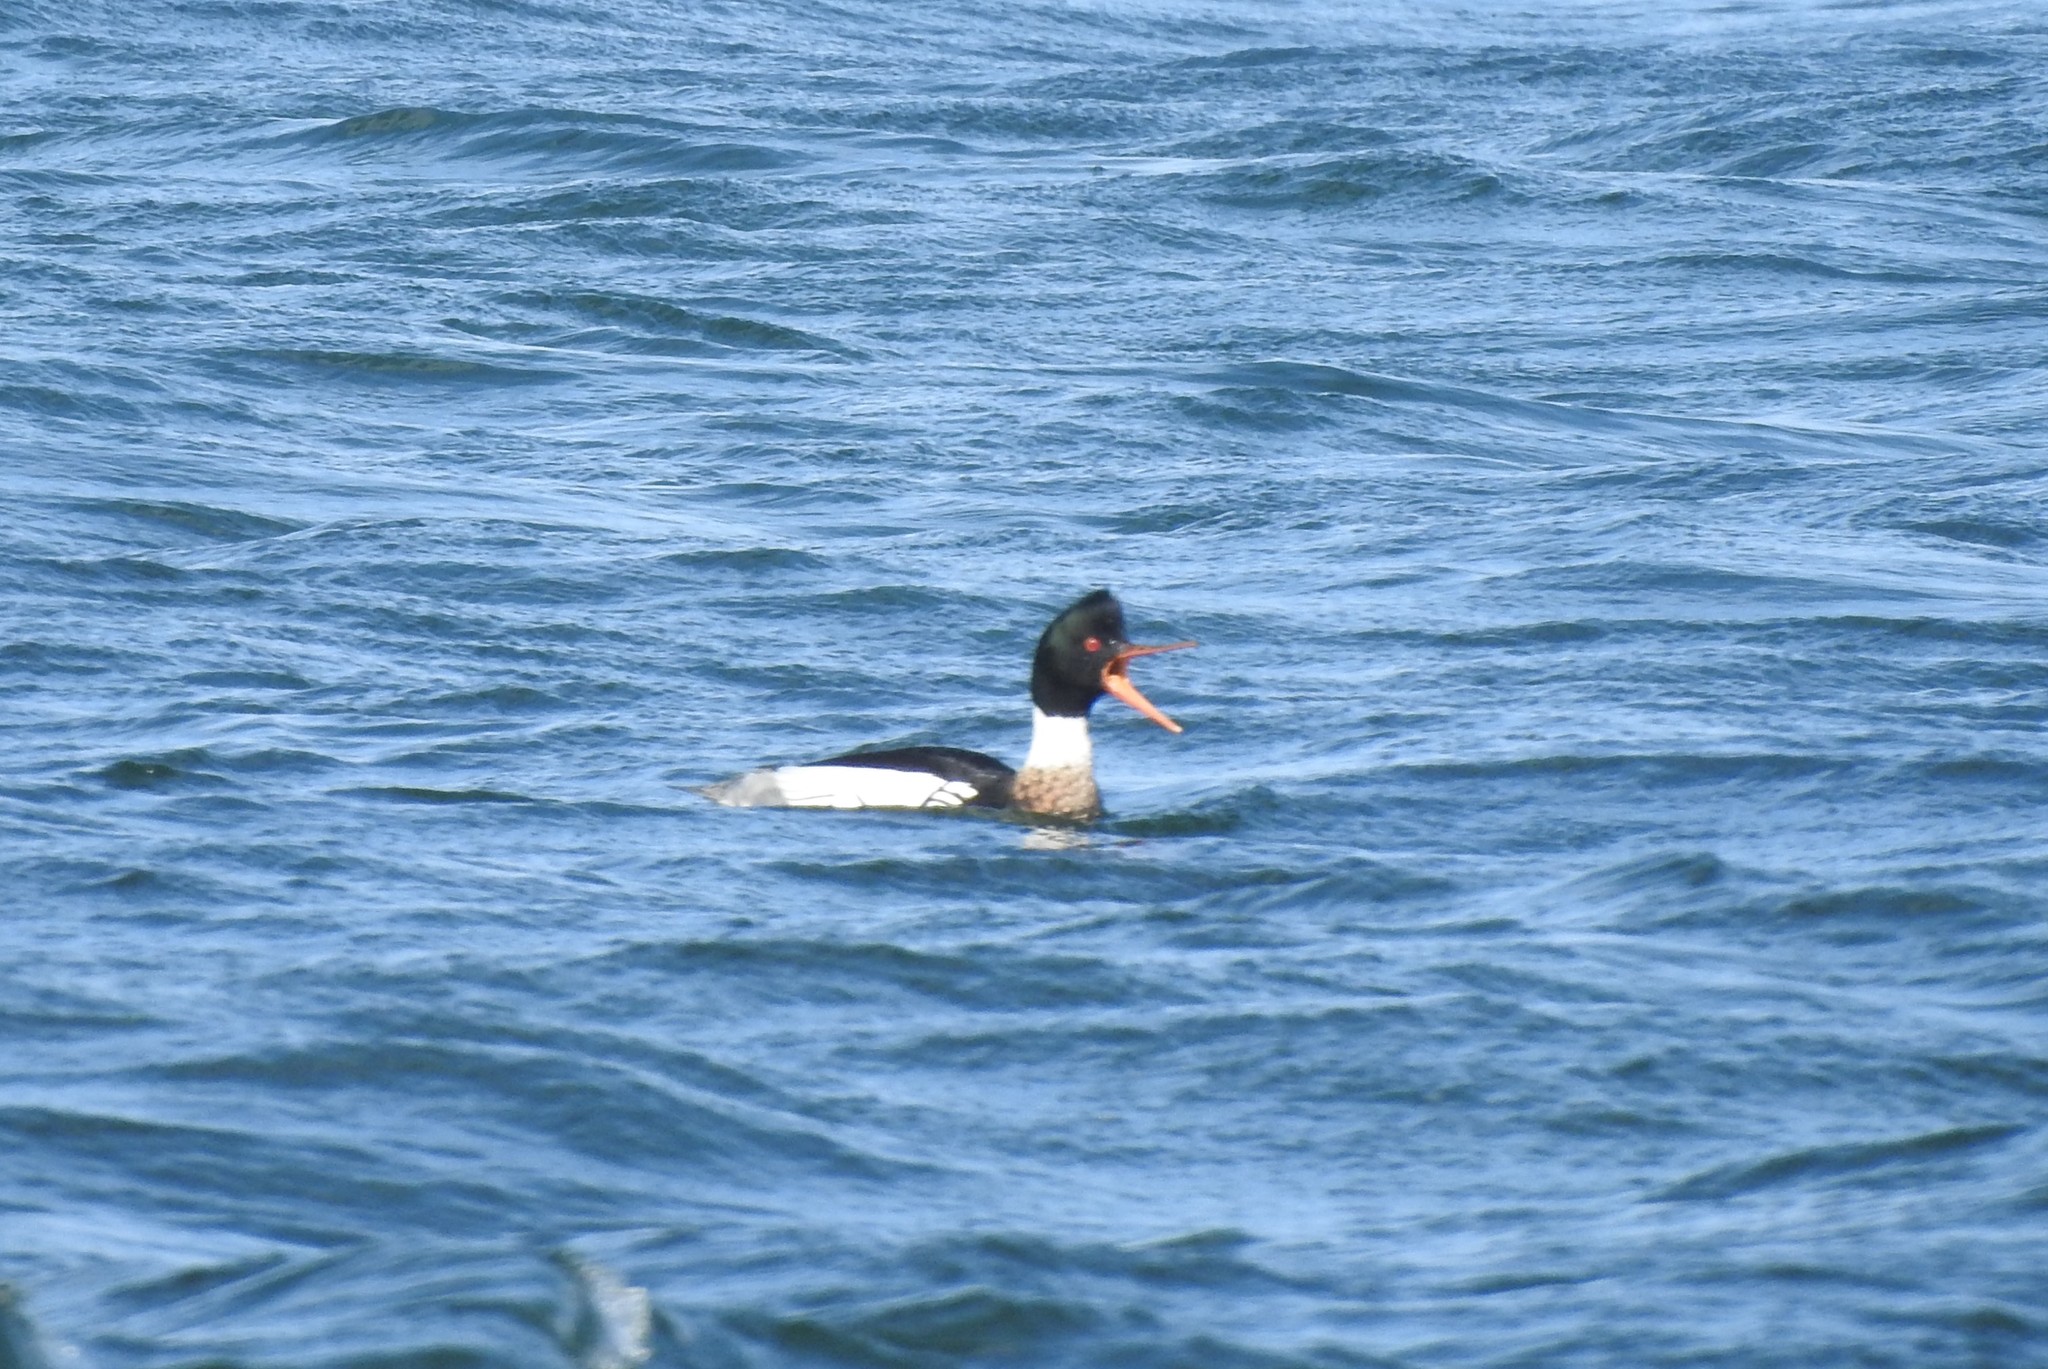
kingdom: Animalia
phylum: Chordata
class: Aves
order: Anseriformes
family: Anatidae
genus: Mergus
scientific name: Mergus serrator
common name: Red-breasted merganser
